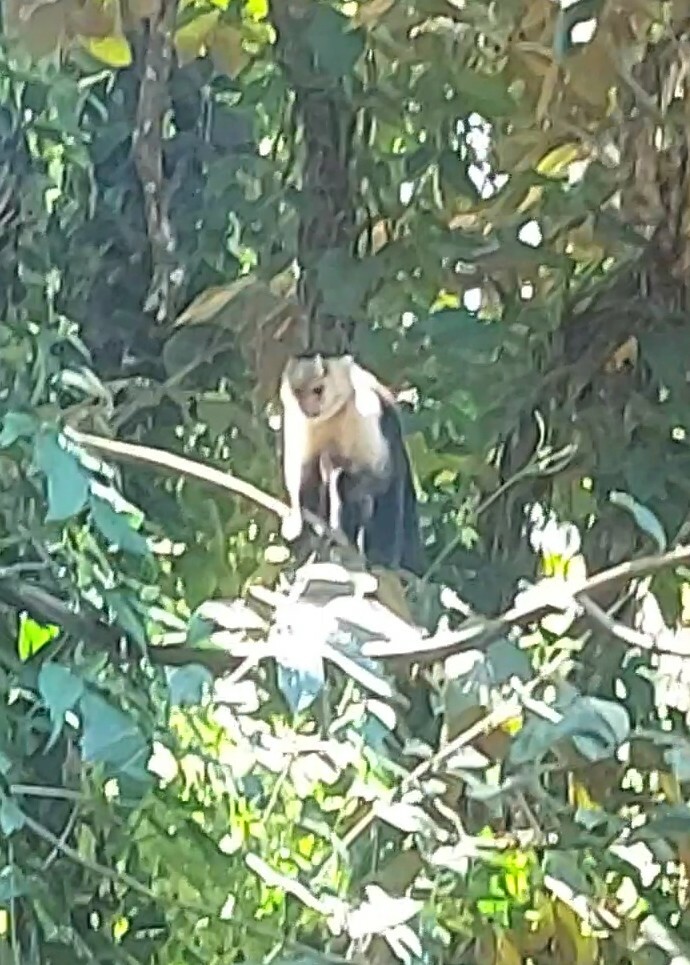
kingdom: Animalia
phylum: Chordata
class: Mammalia
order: Primates
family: Cebidae
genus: Cebus
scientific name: Cebus imitator
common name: Panamanian white-faced capuchin
